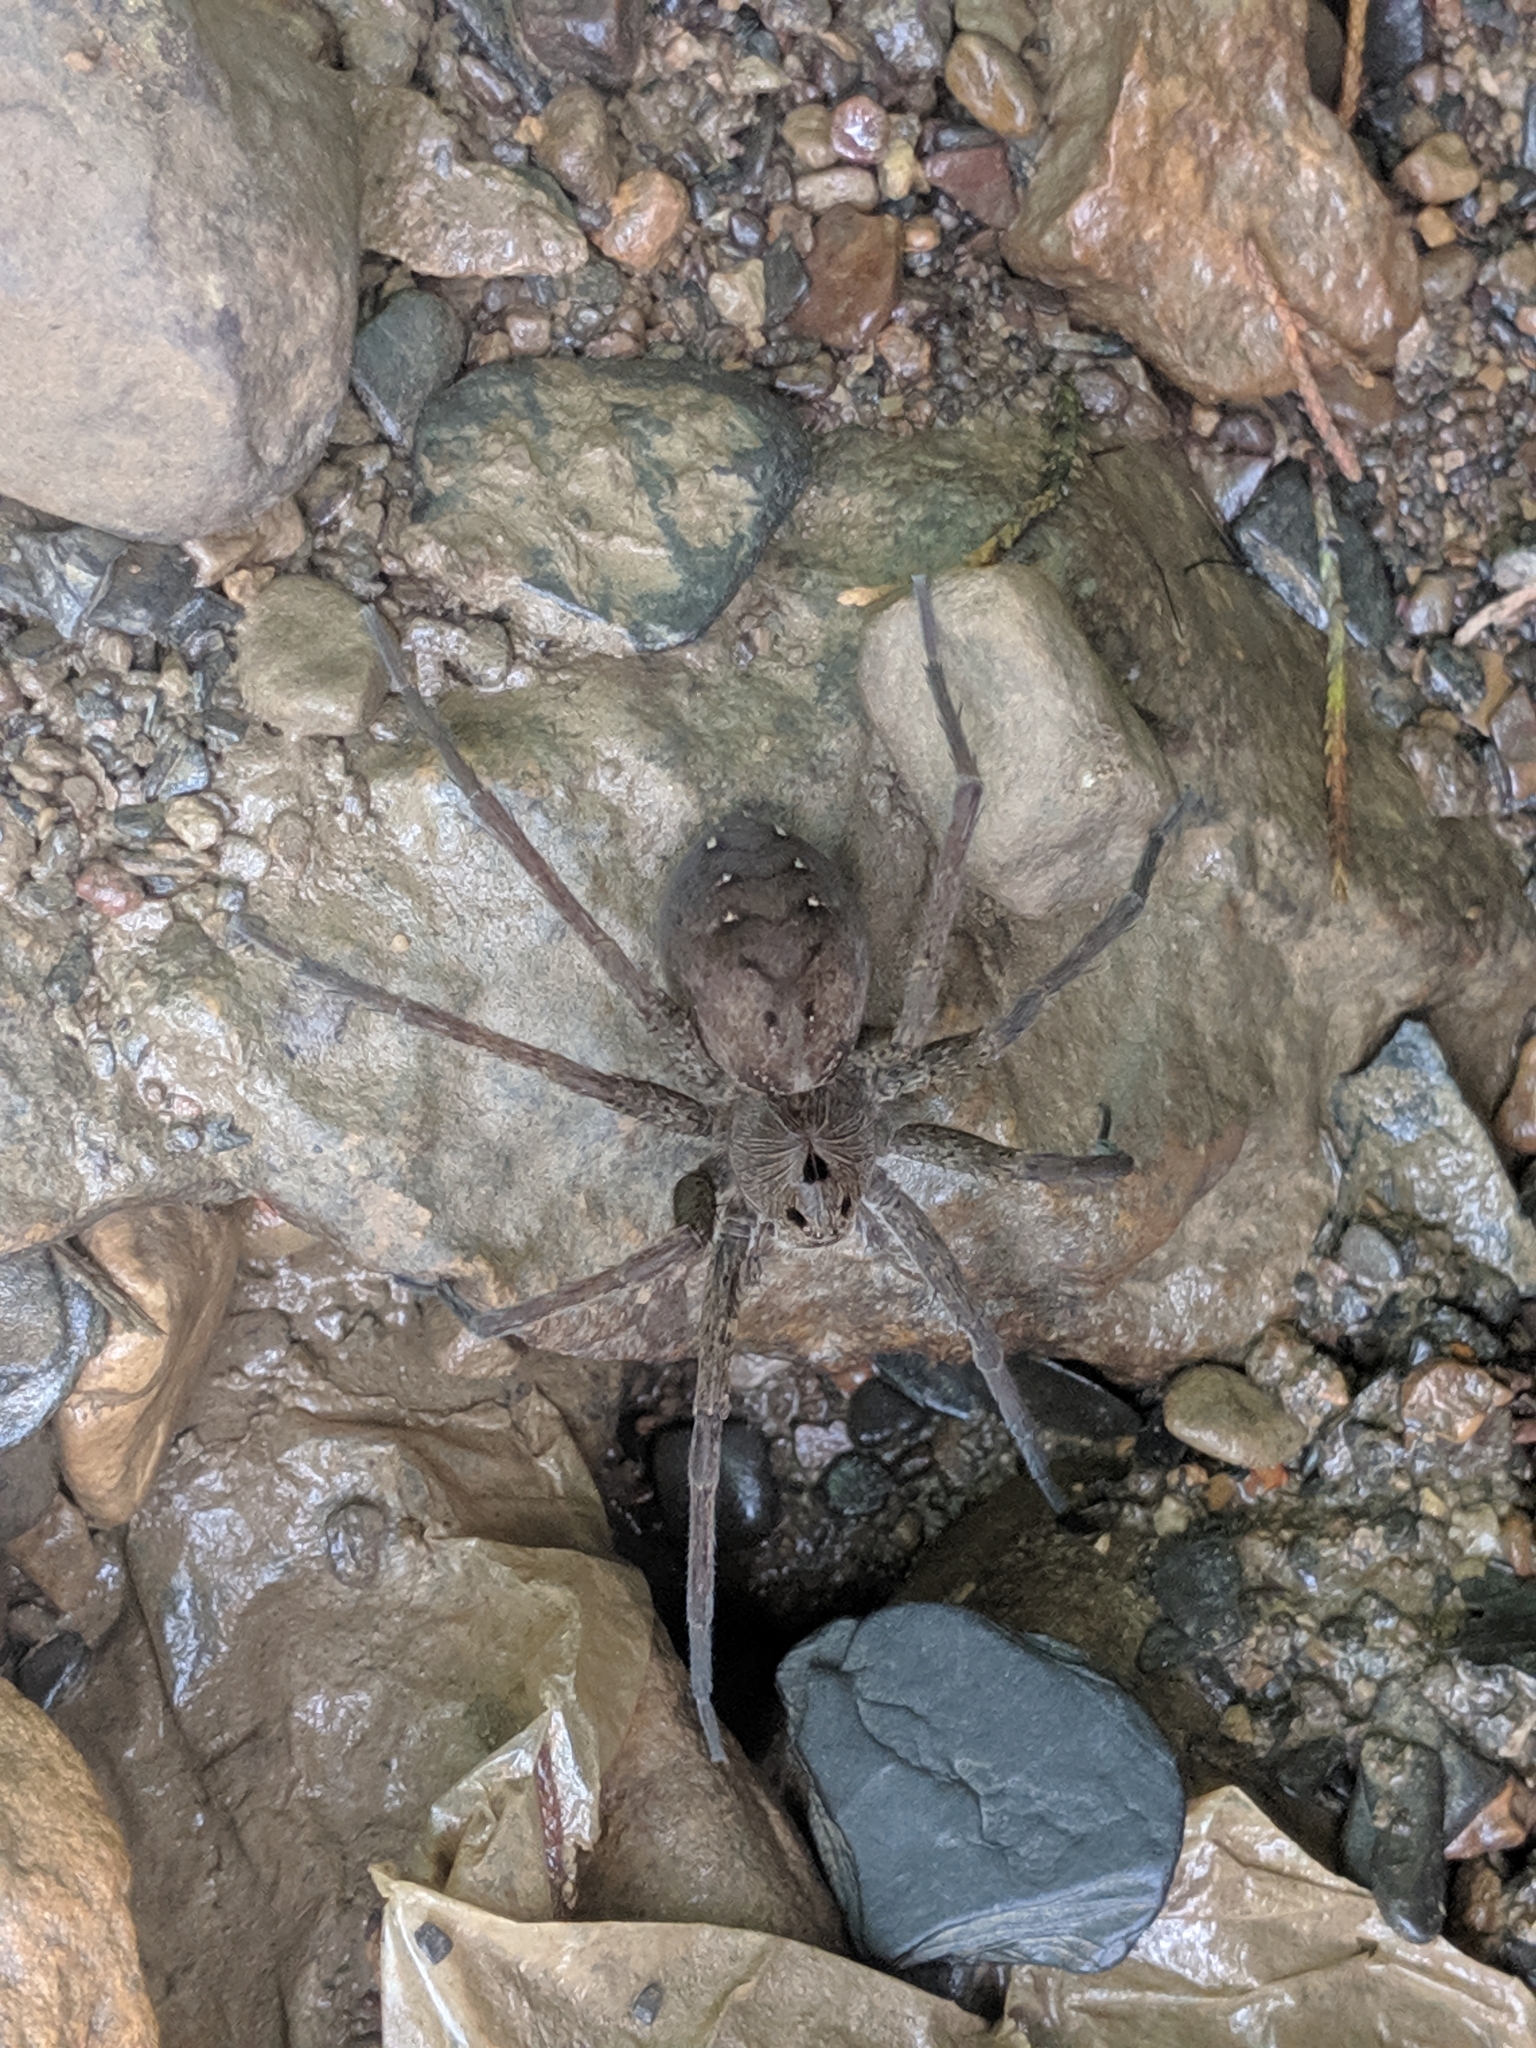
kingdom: Animalia
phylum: Arthropoda
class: Arachnida
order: Araneae
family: Pisauridae
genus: Dolomedes
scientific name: Dolomedes vittatus
